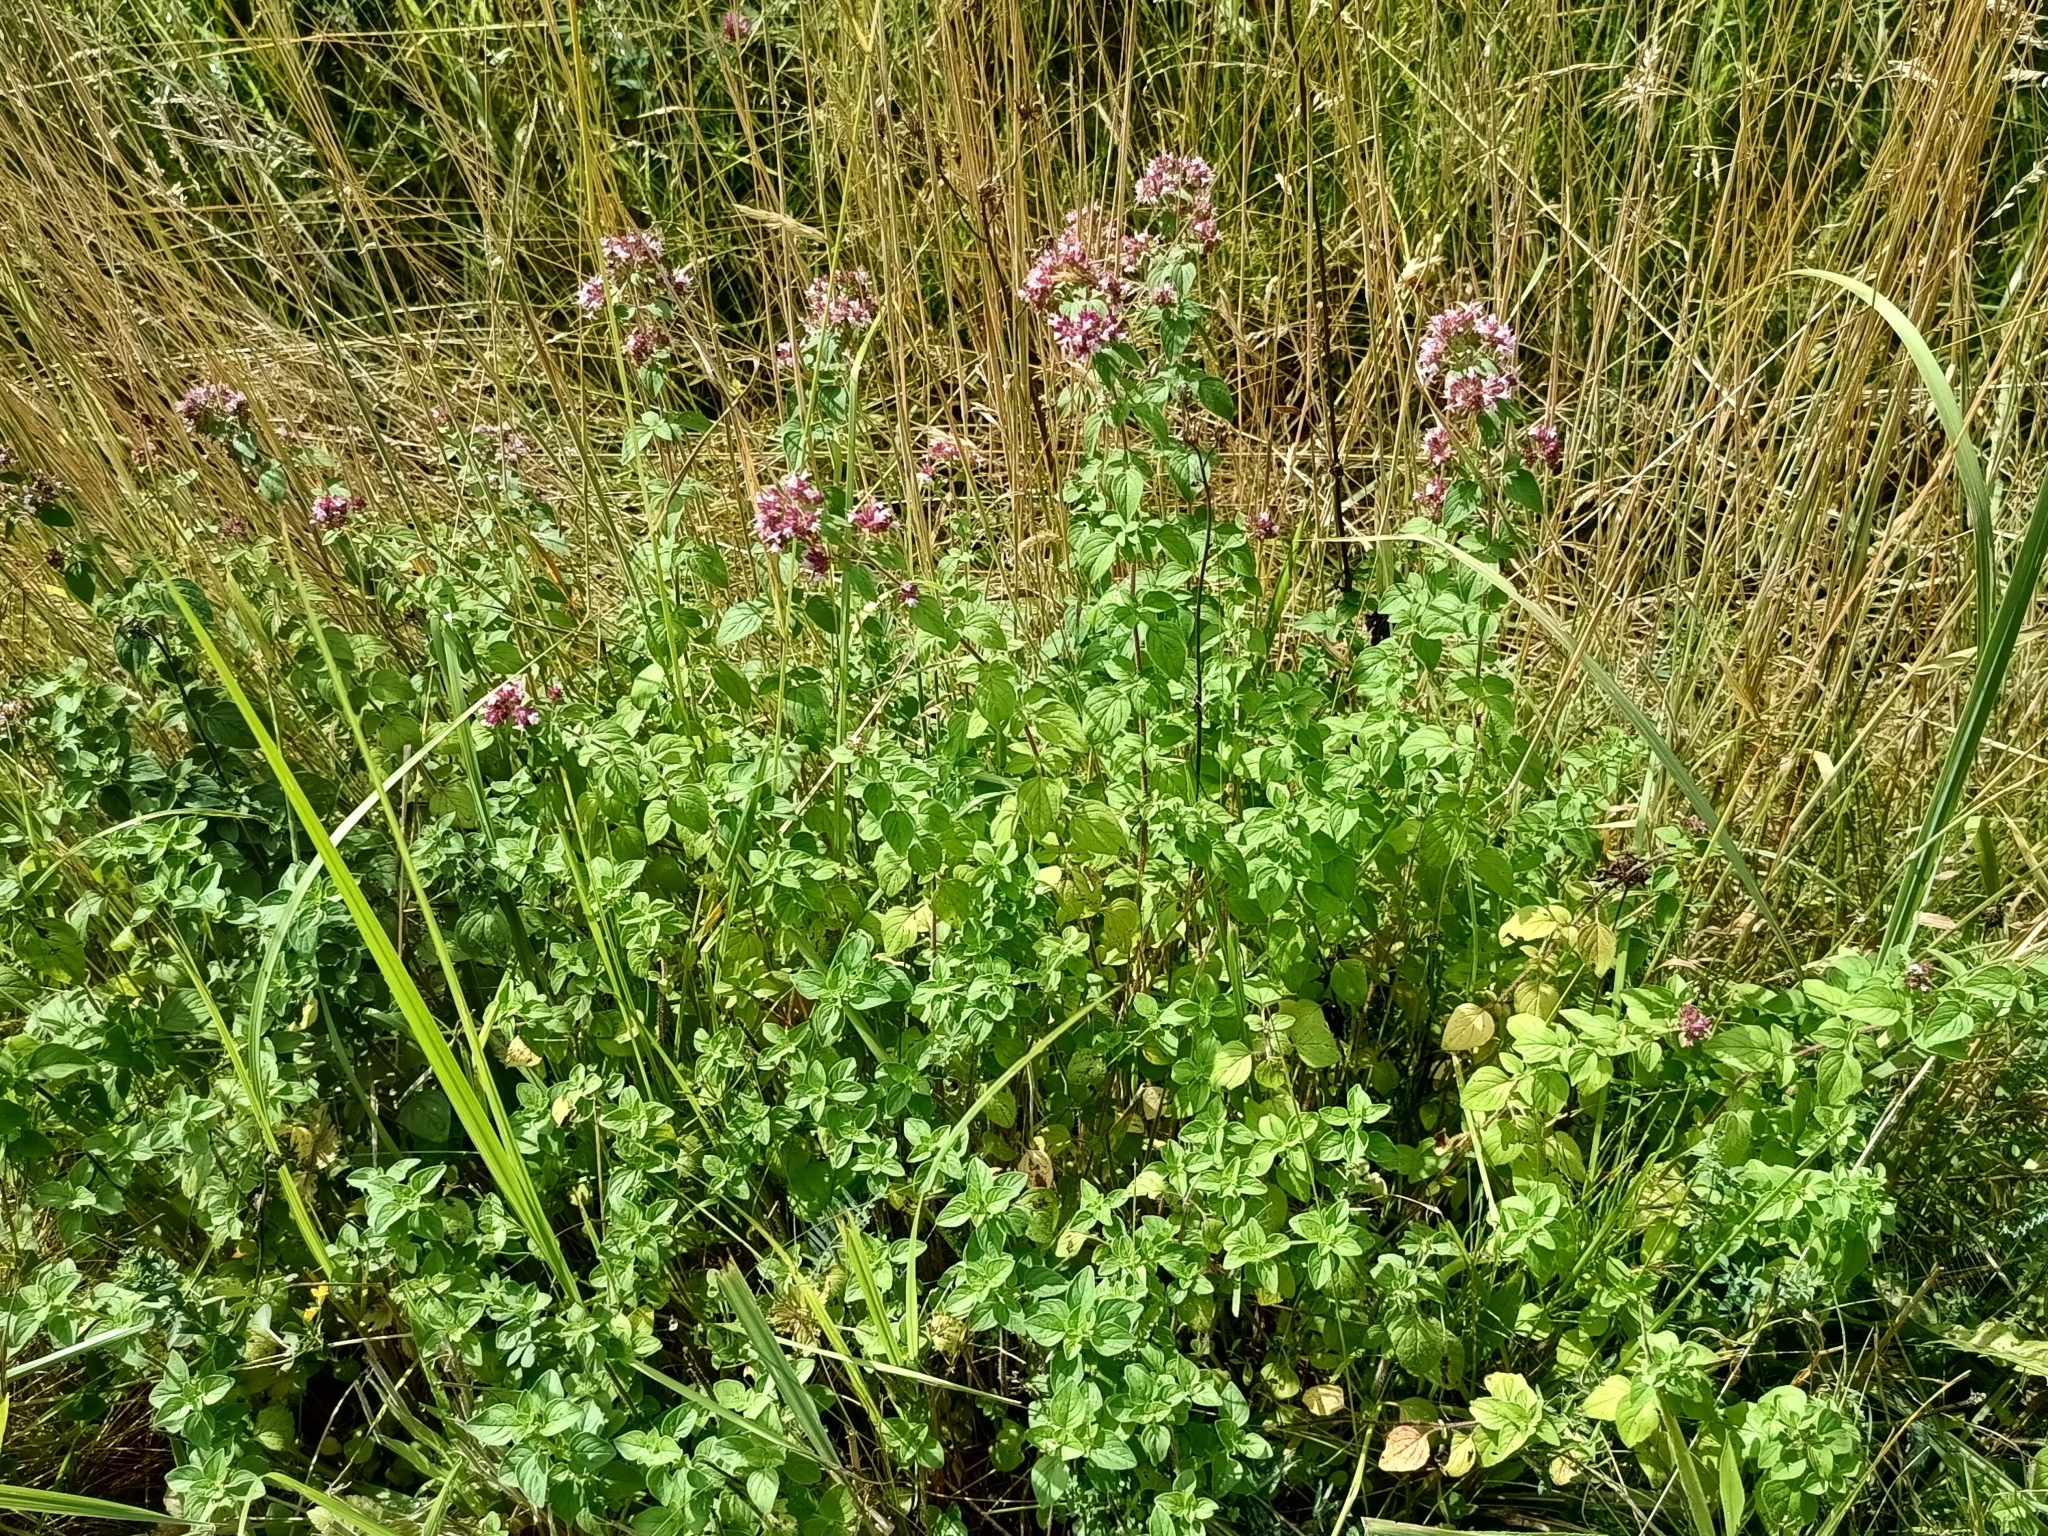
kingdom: Plantae
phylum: Tracheophyta
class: Magnoliopsida
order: Lamiales
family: Lamiaceae
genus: Origanum
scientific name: Origanum vulgare
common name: Wild marjoram
